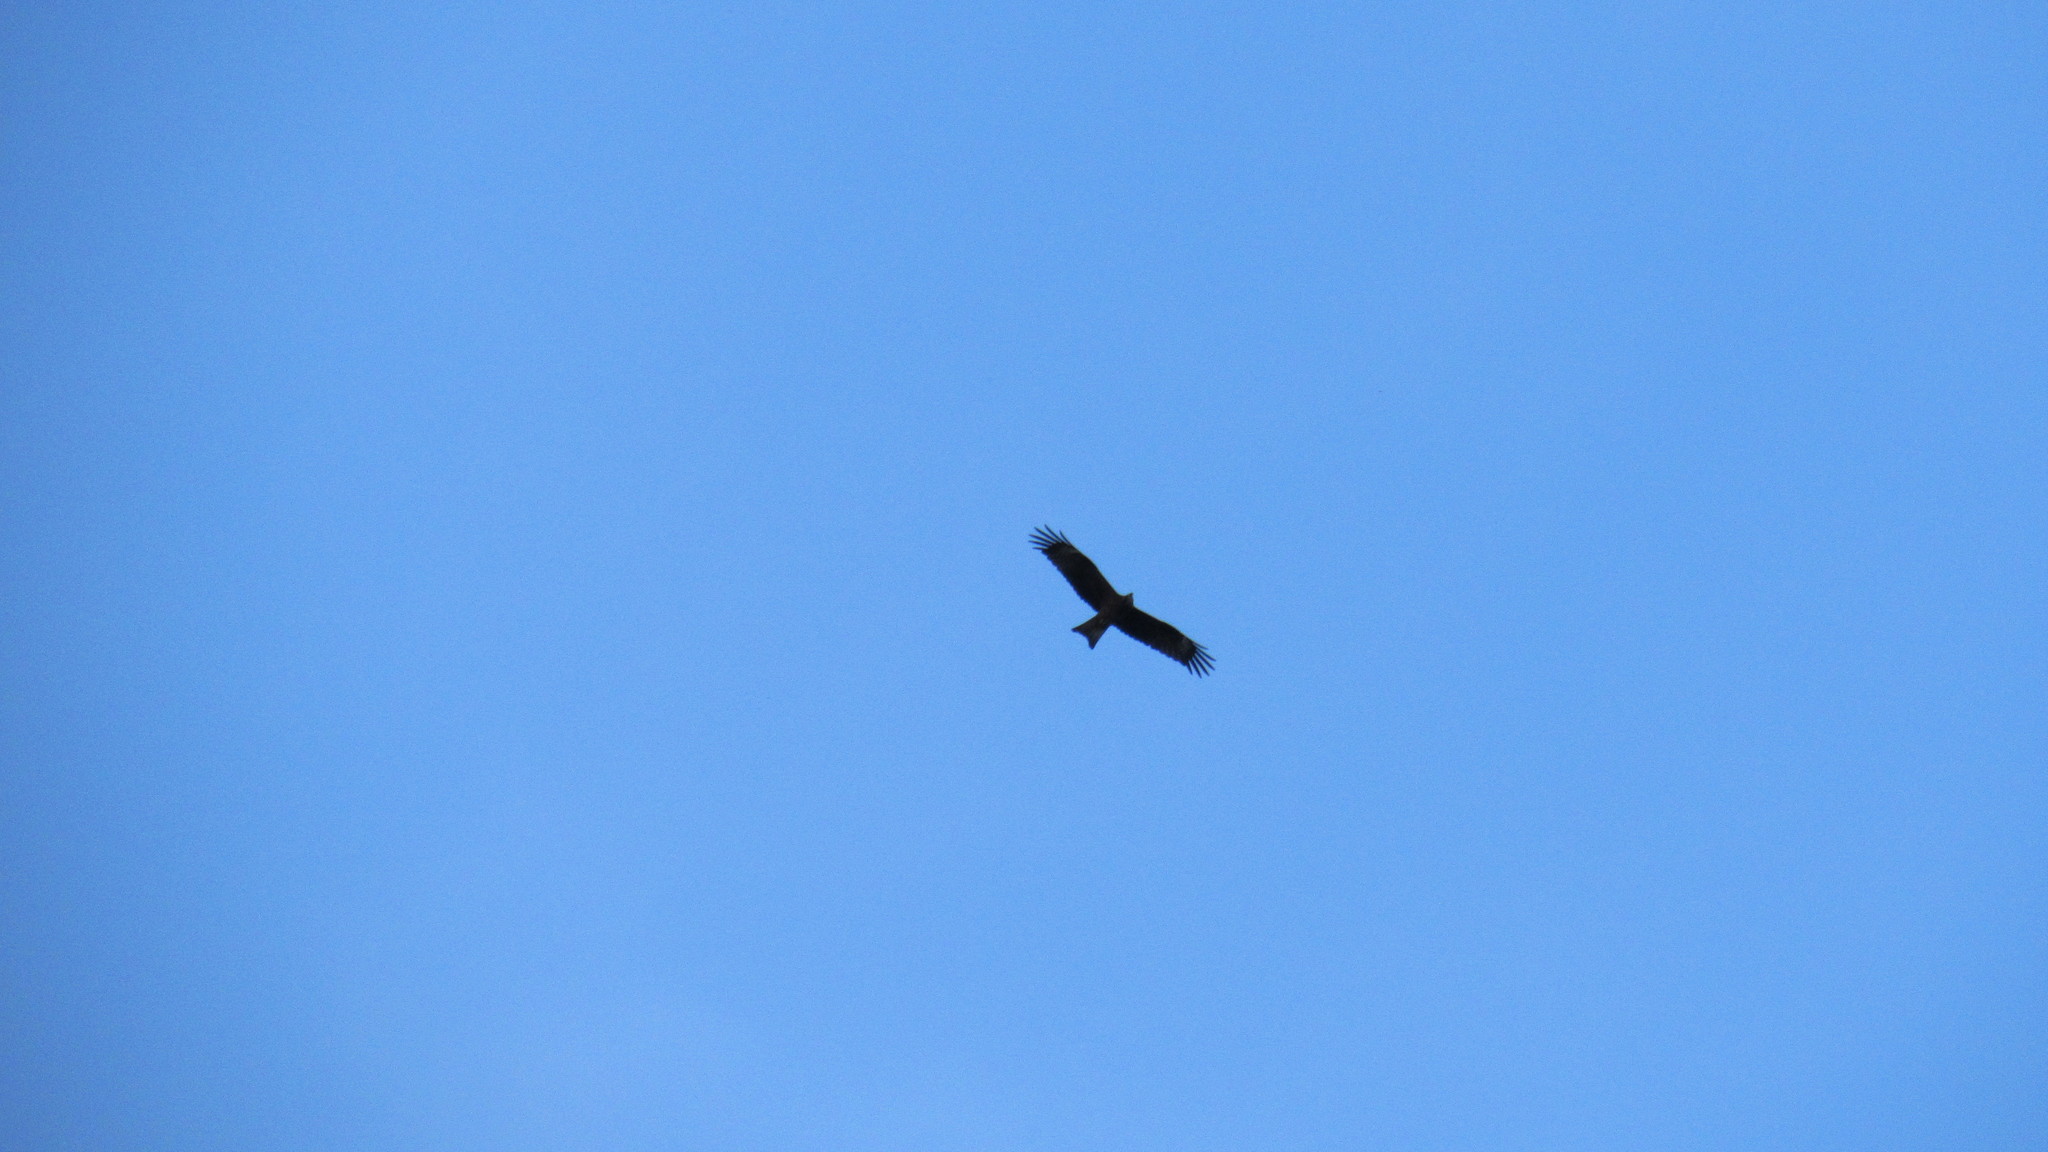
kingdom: Animalia
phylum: Chordata
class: Aves
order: Accipitriformes
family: Accipitridae
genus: Milvus
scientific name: Milvus migrans
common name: Black kite
